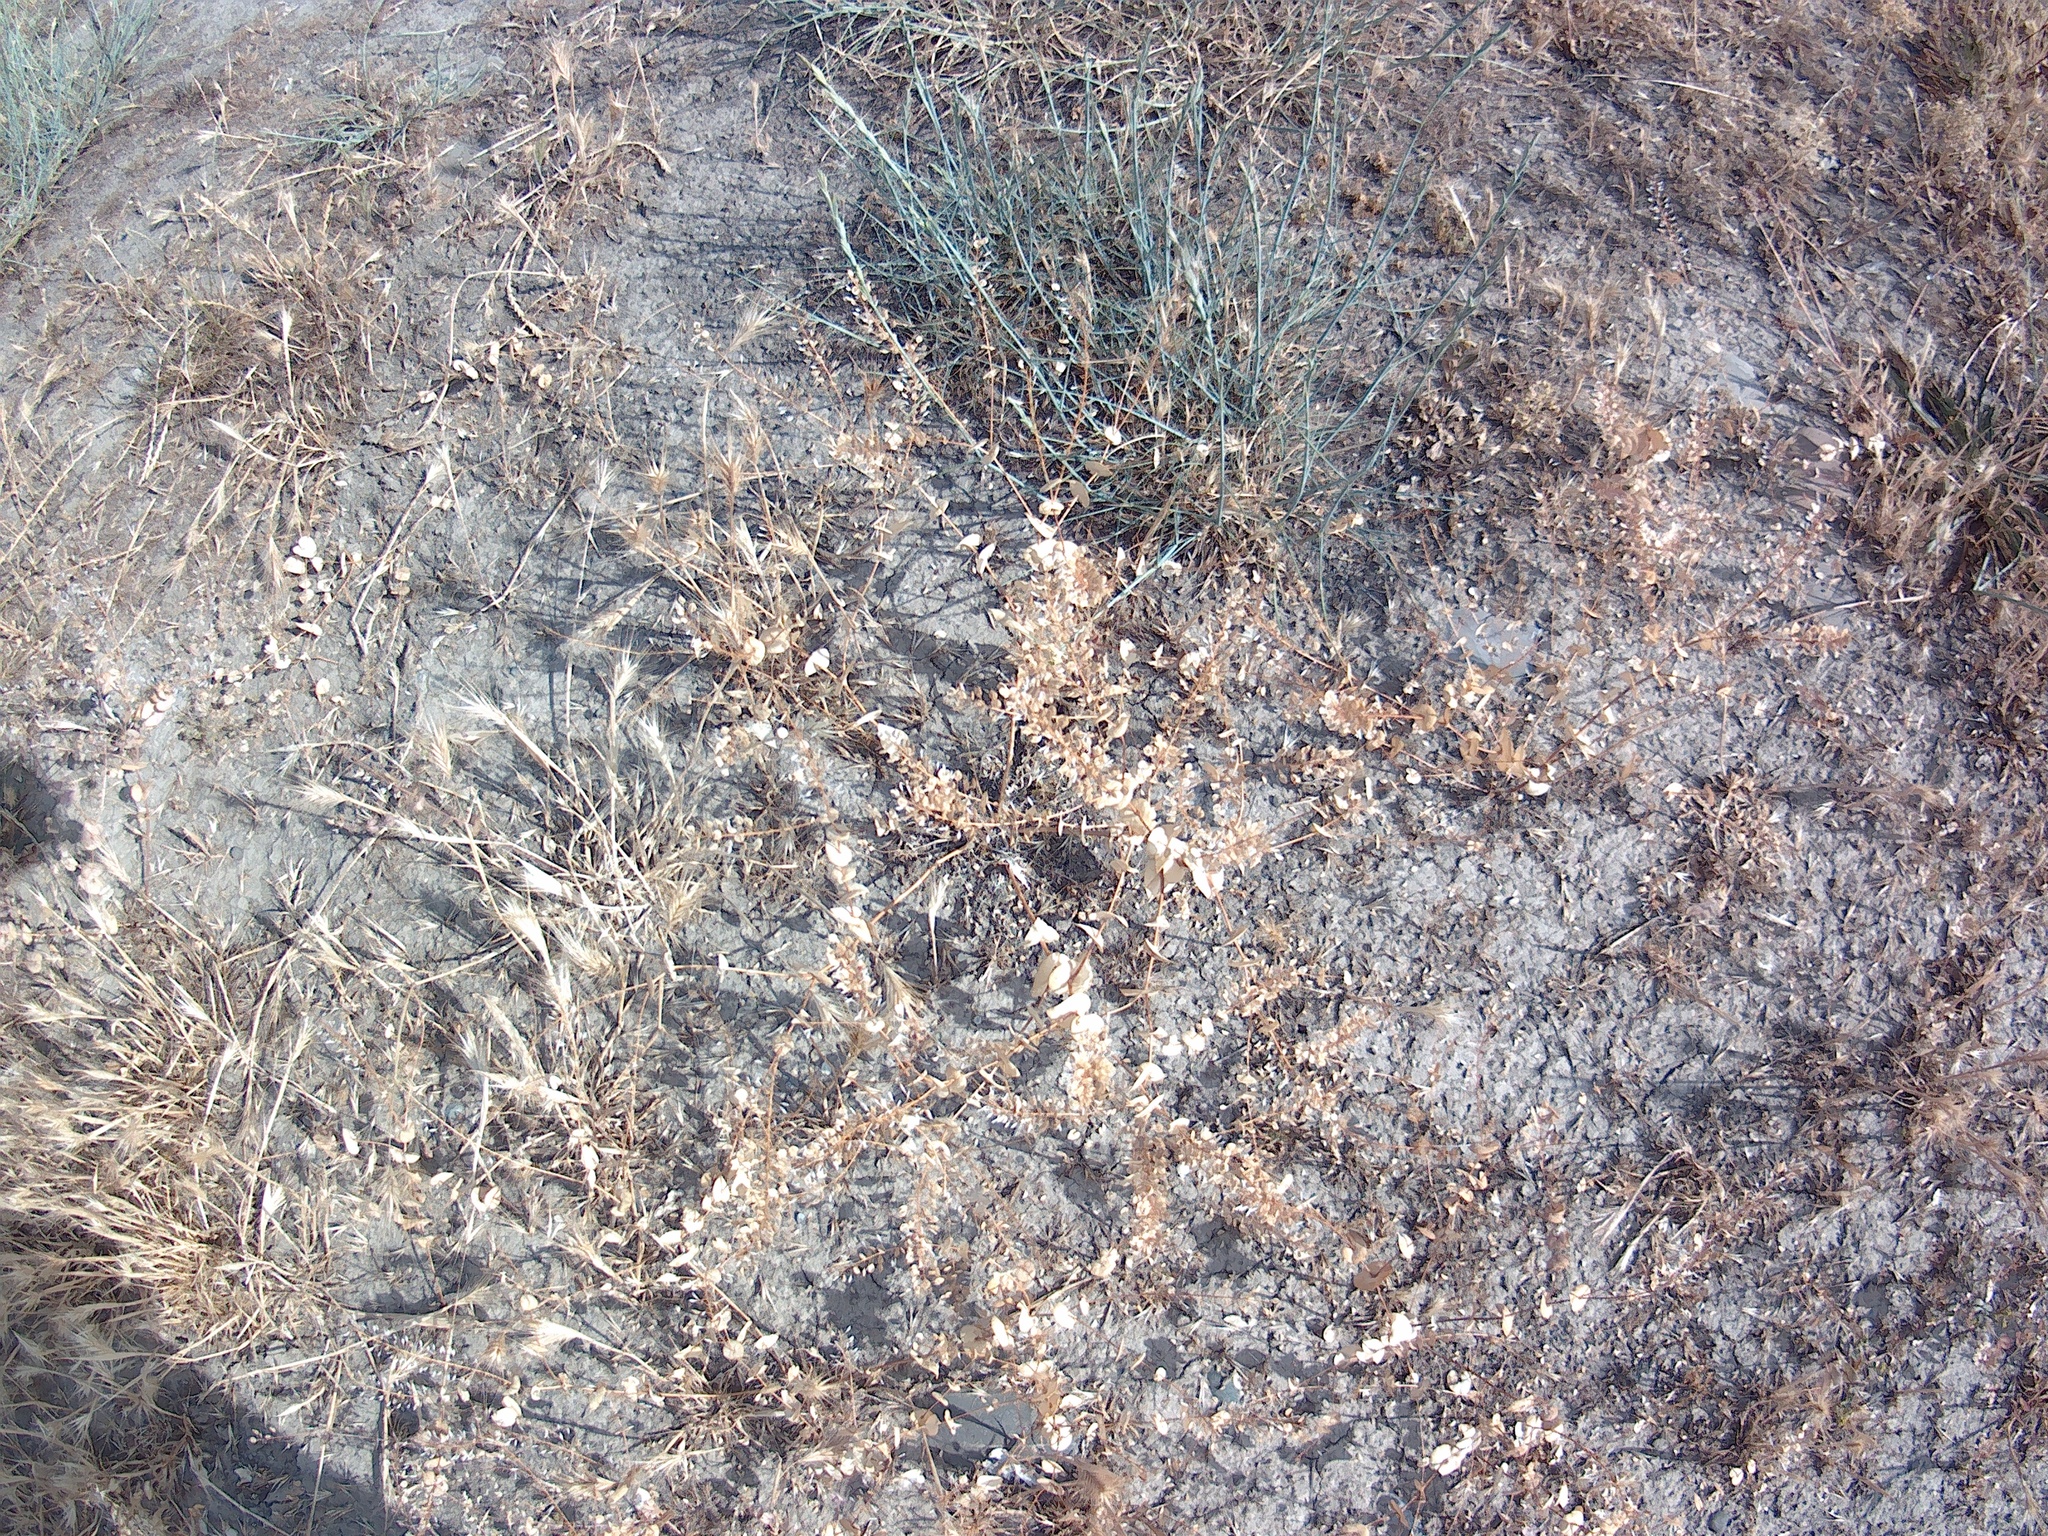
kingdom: Plantae
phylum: Tracheophyta
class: Magnoliopsida
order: Brassicales
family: Brassicaceae
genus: Lepidium
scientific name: Lepidium perfoliatum
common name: Perfoliate pepperwort
